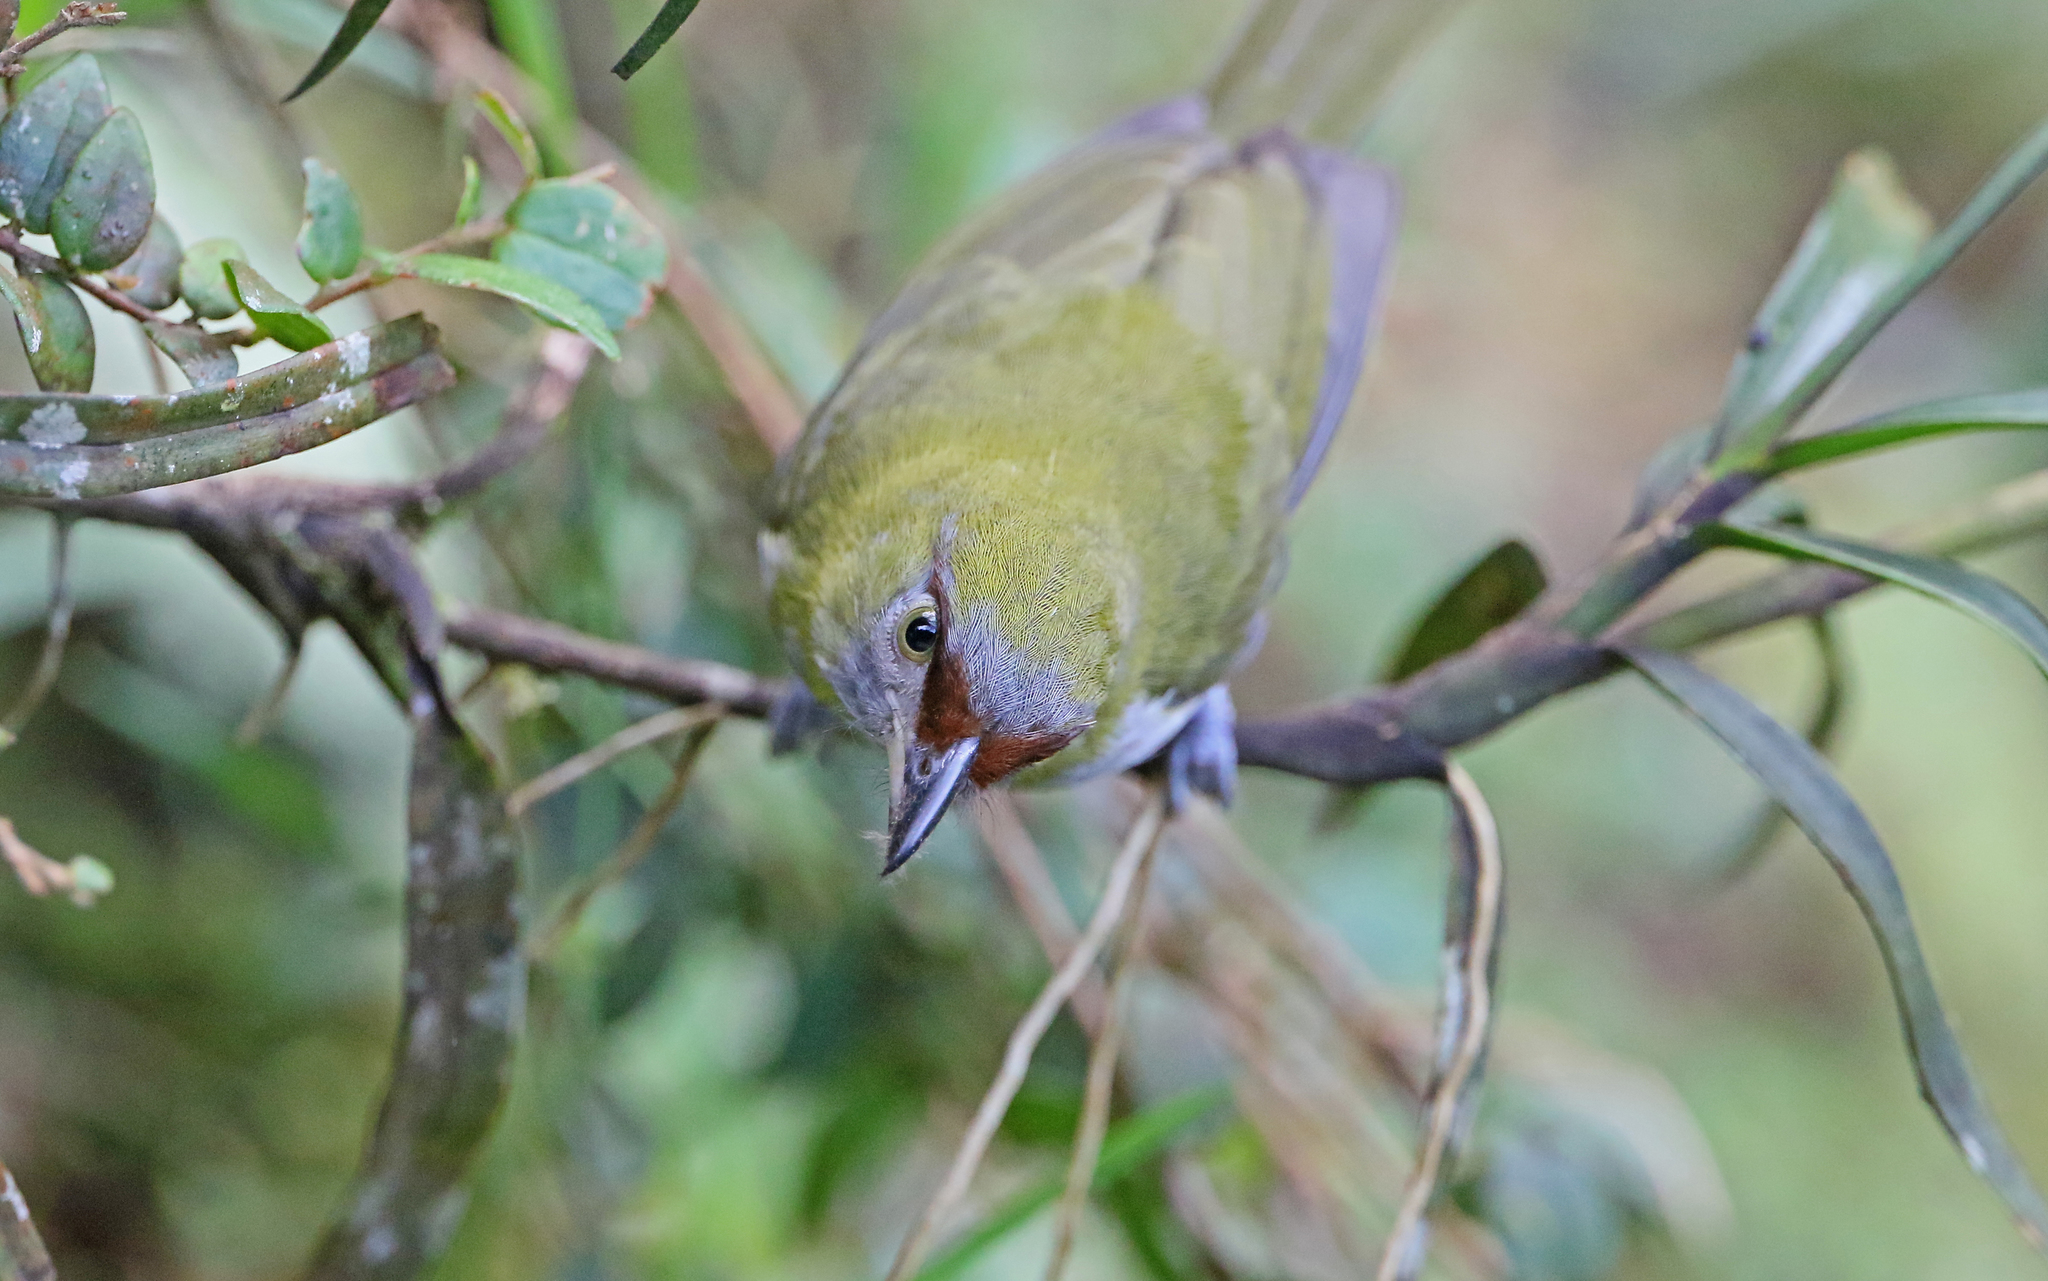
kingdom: Animalia
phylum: Chordata
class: Aves
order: Passeriformes
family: Vireonidae
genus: Cyclarhis
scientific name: Cyclarhis nigrirostris
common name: Black-billed peppershrike
